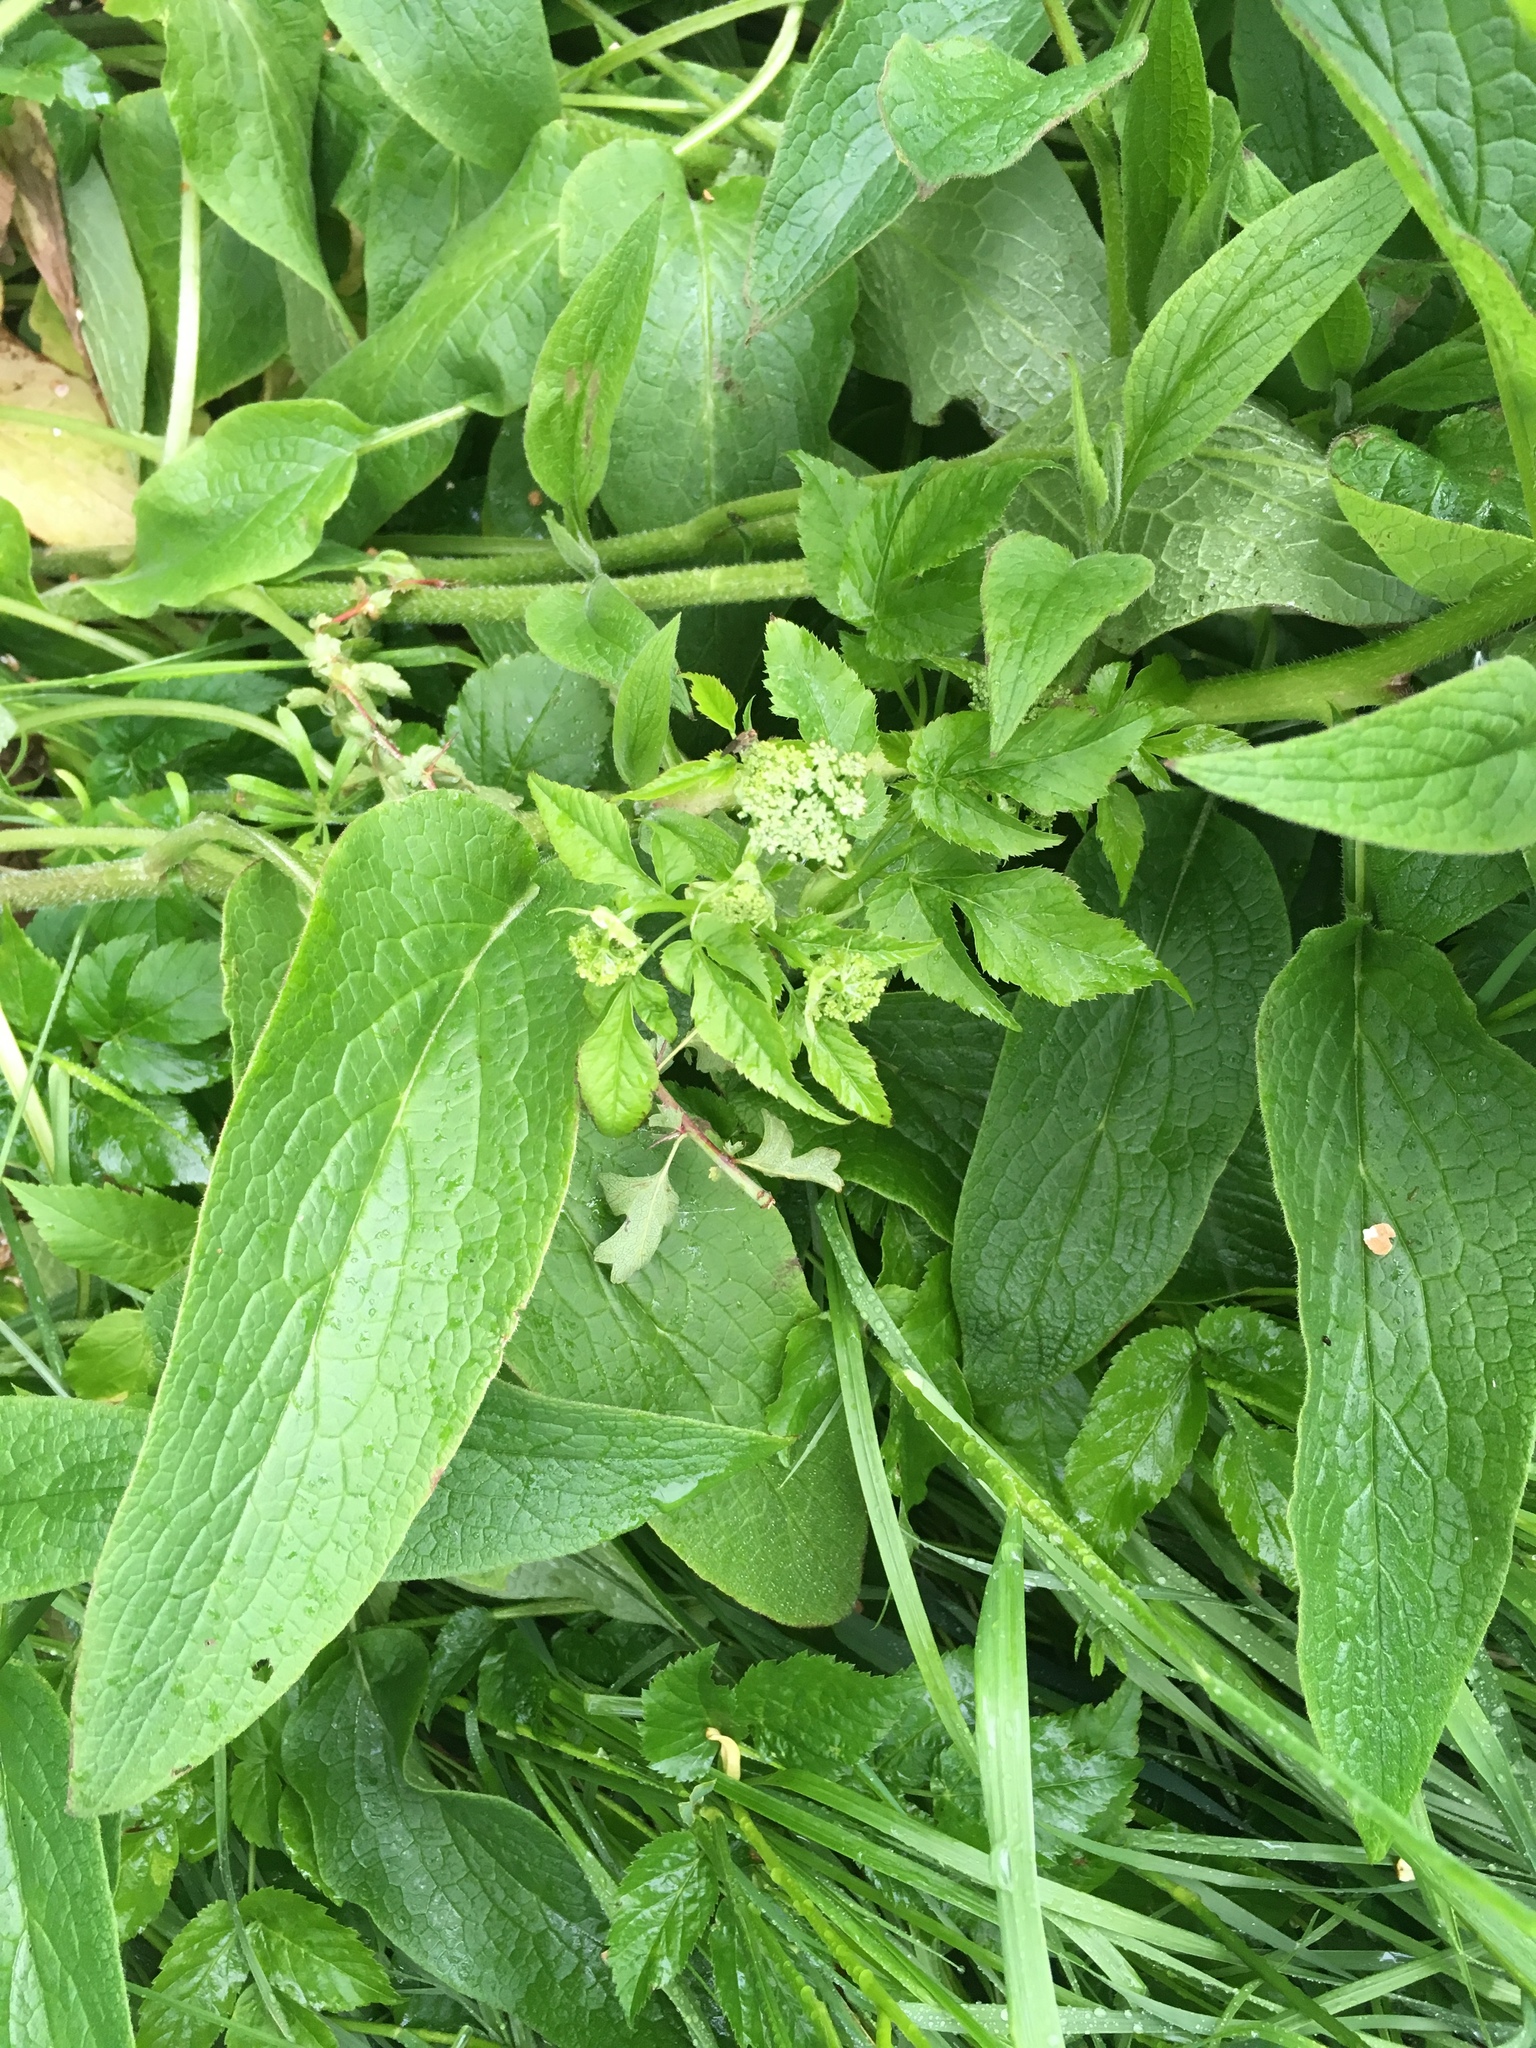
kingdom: Plantae
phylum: Tracheophyta
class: Magnoliopsida
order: Boraginales
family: Boraginaceae
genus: Symphytum
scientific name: Symphytum officinale
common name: Common comfrey
